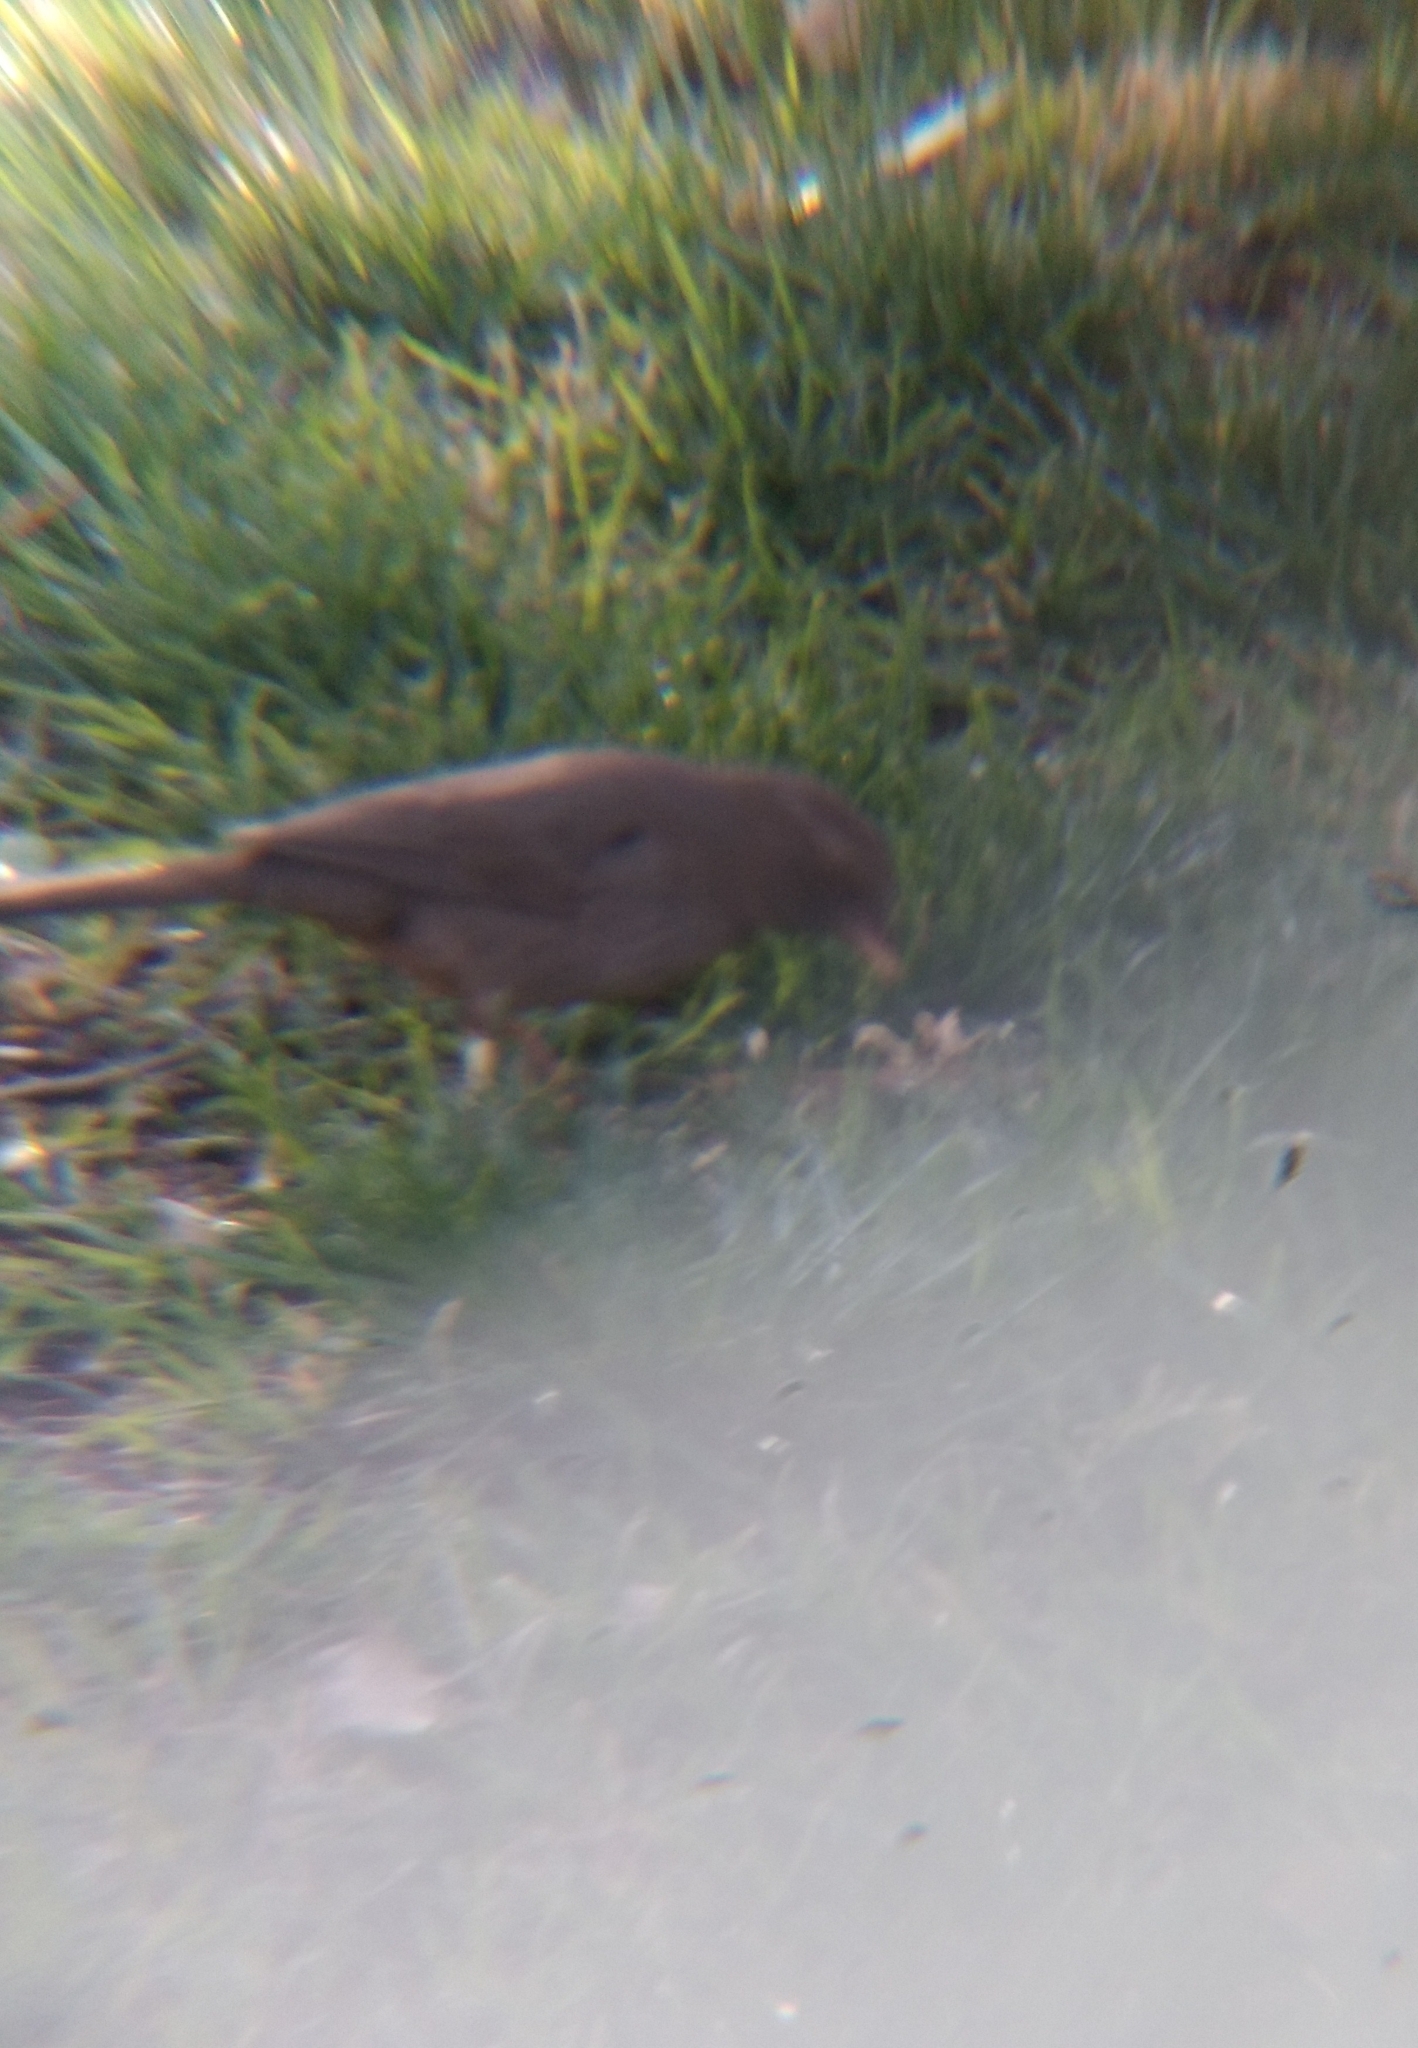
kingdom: Animalia
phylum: Chordata
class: Aves
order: Passeriformes
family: Passerellidae
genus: Melozone
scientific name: Melozone crissalis
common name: California towhee
